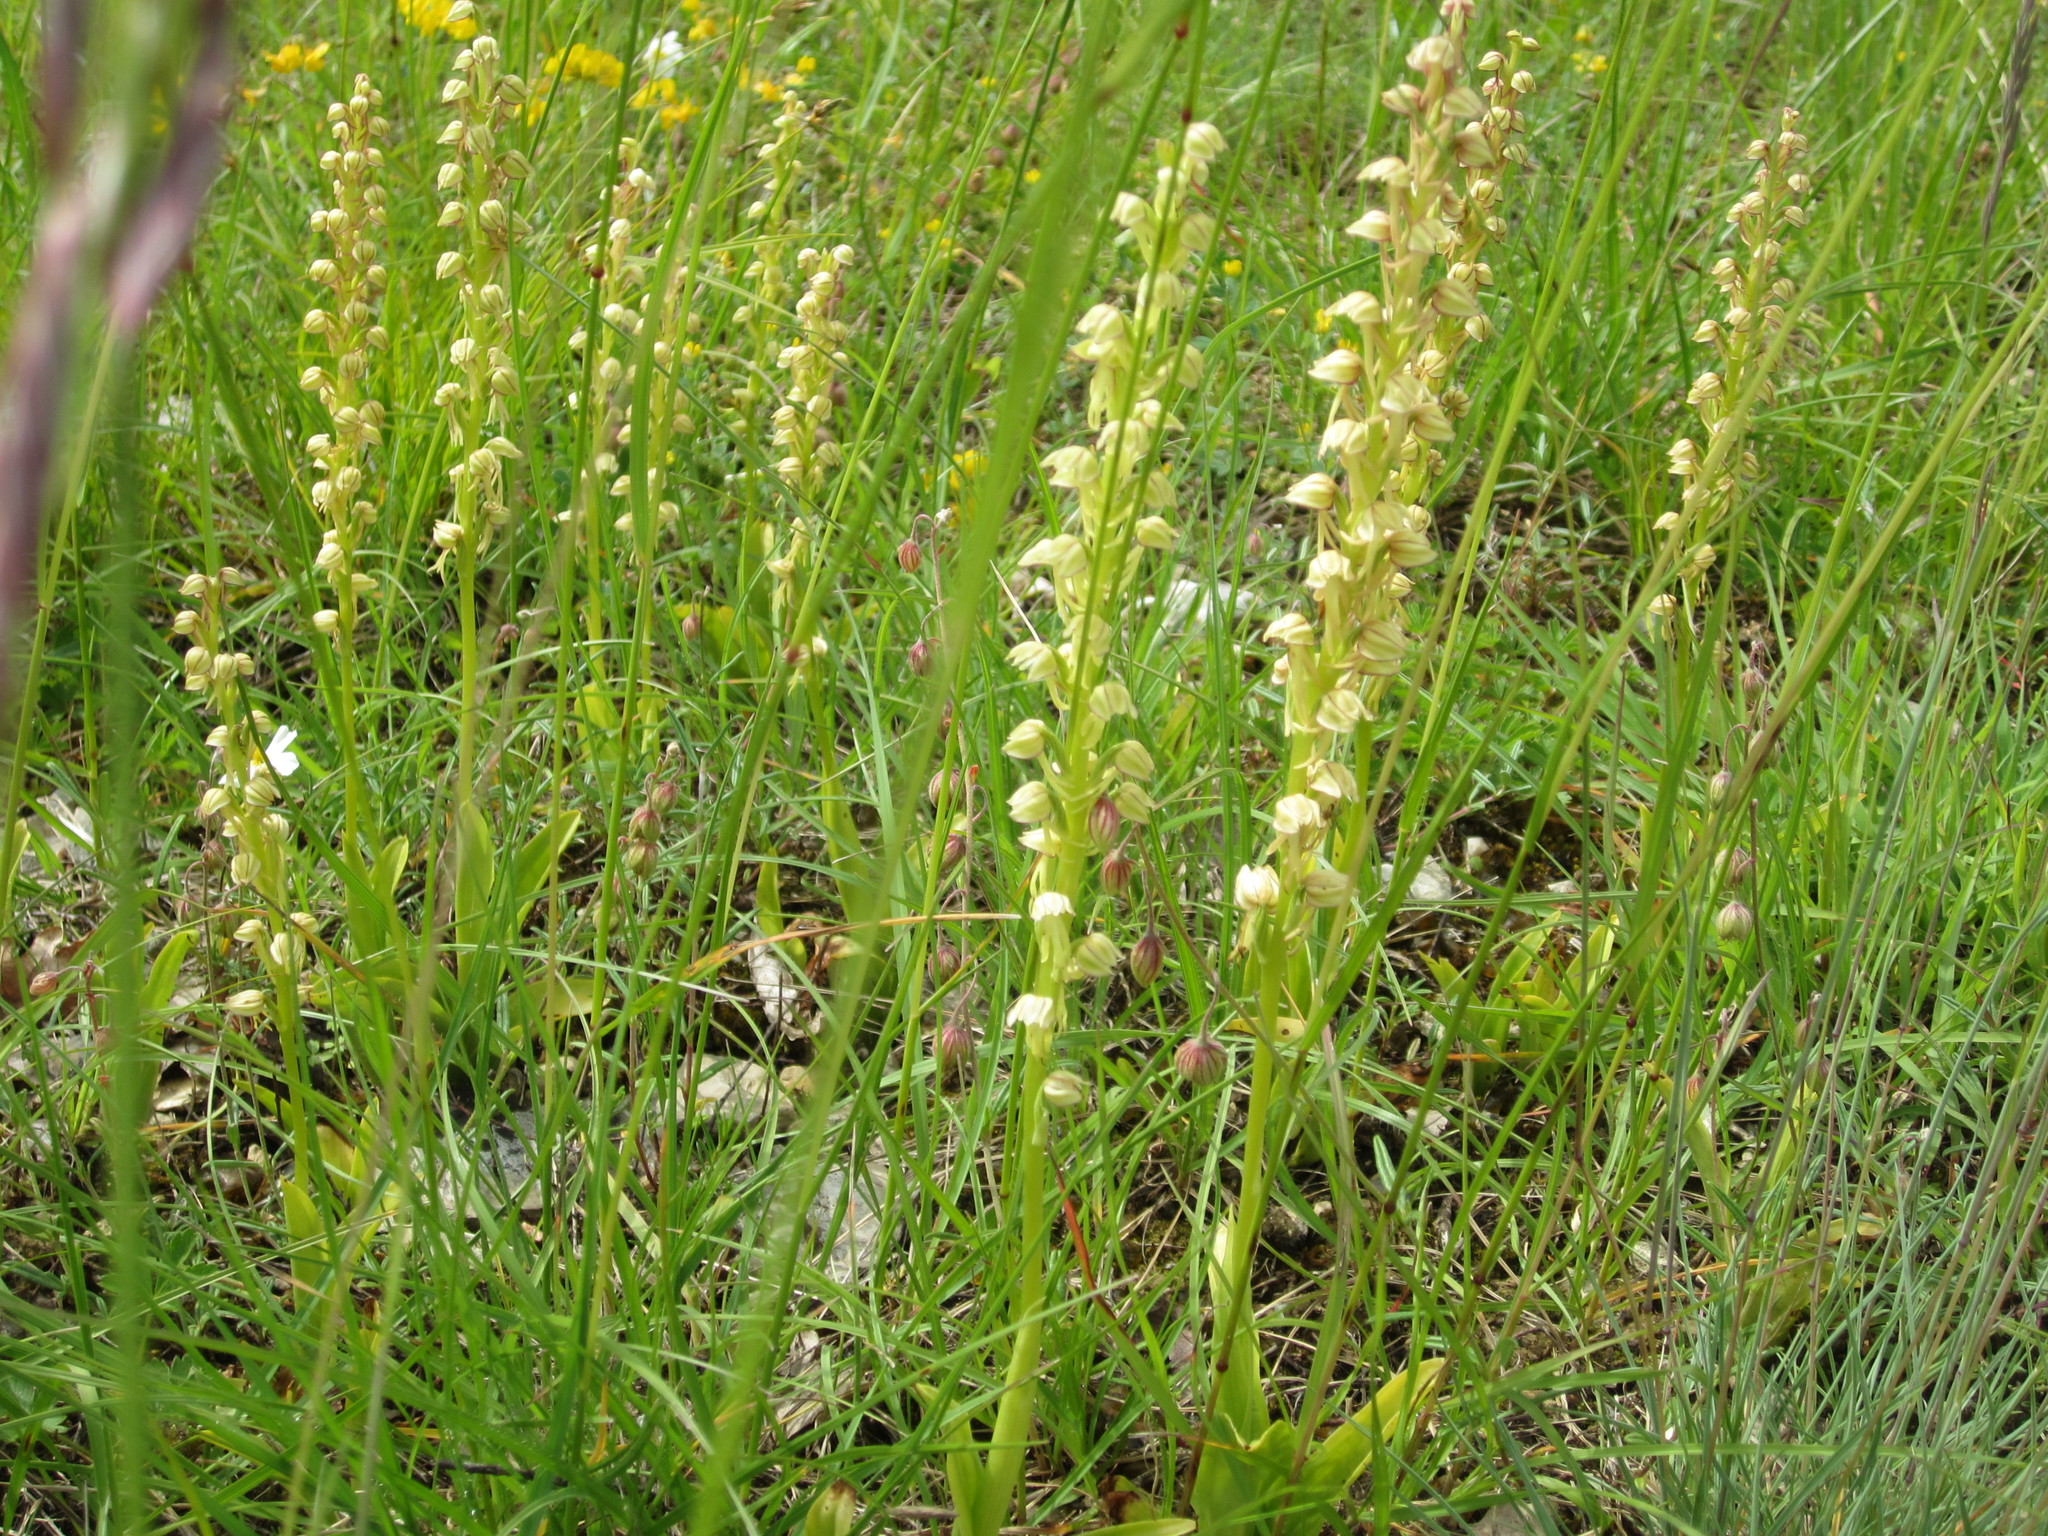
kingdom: Plantae
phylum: Tracheophyta
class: Liliopsida
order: Asparagales
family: Orchidaceae
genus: Orchis
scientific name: Orchis anthropophora
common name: Man orchid
